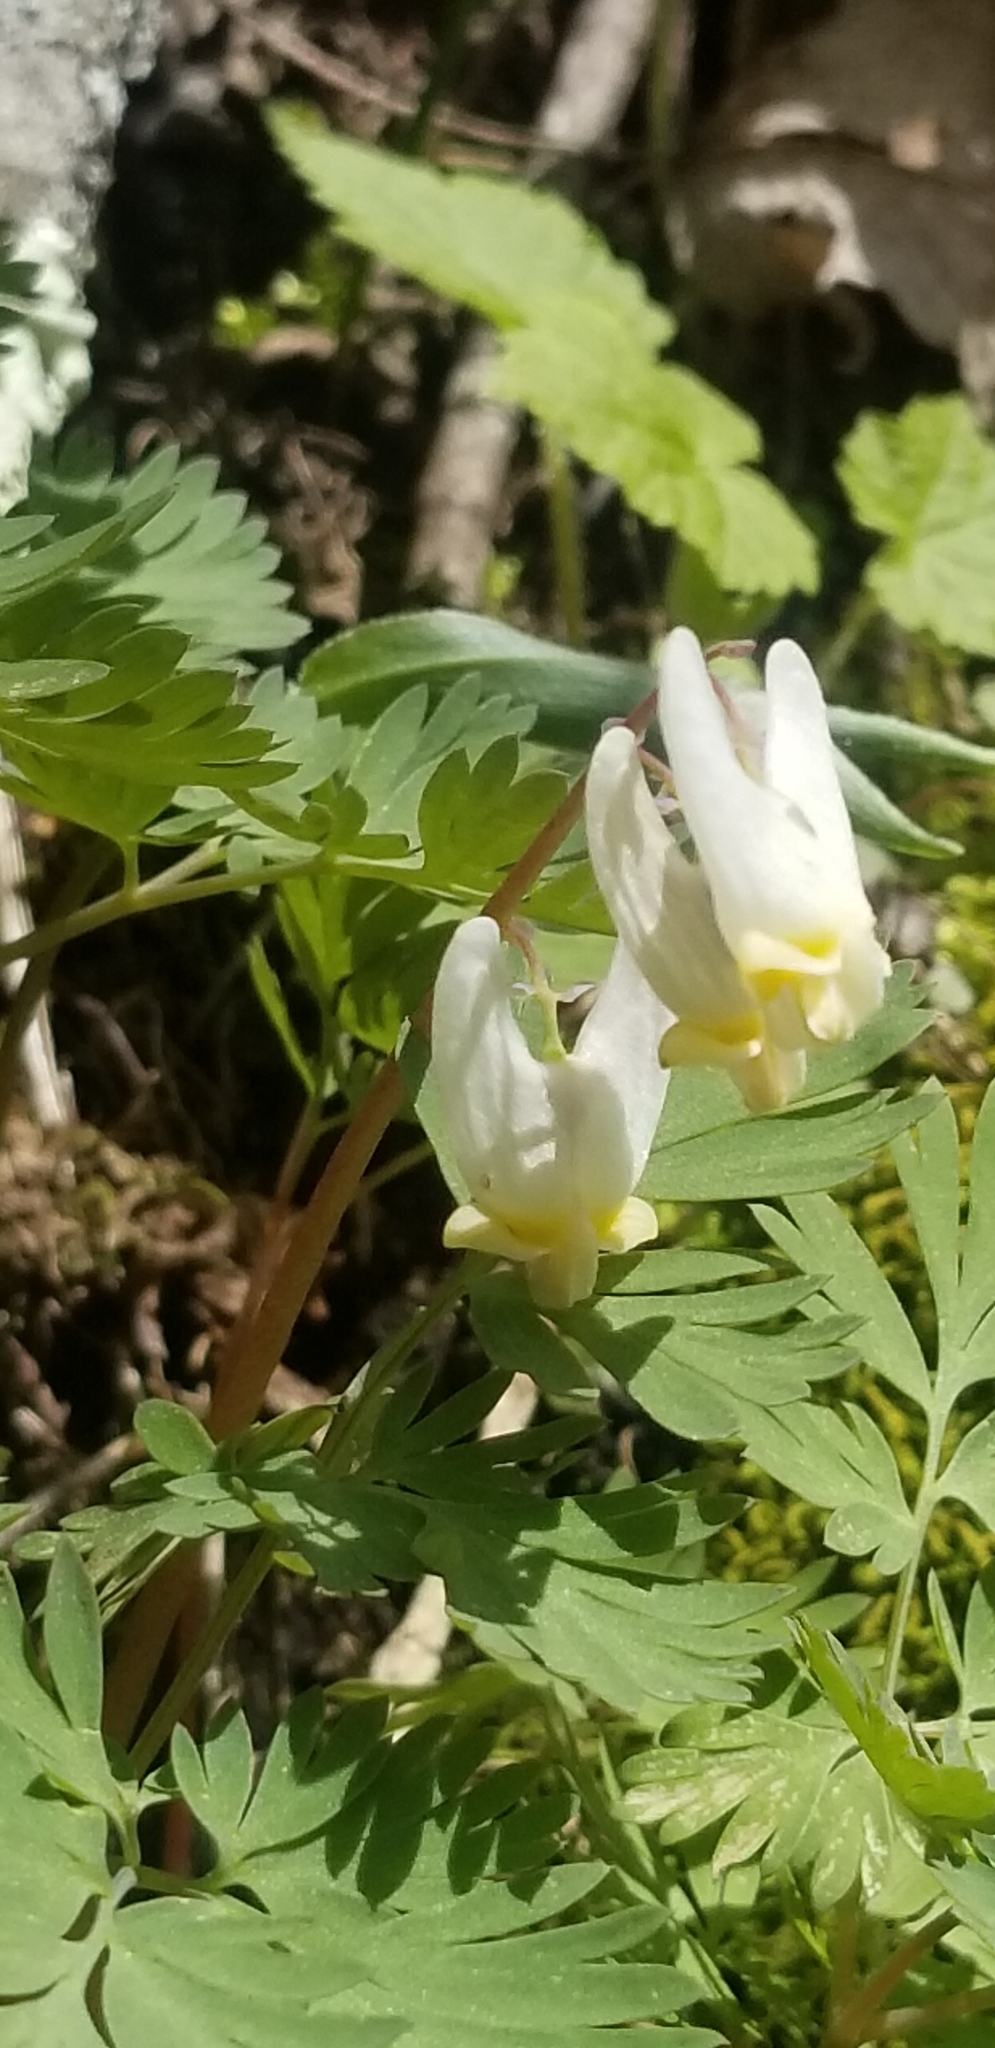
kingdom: Plantae
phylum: Tracheophyta
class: Magnoliopsida
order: Ranunculales
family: Papaveraceae
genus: Dicentra
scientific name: Dicentra cucullaria
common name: Dutchman's breeches
